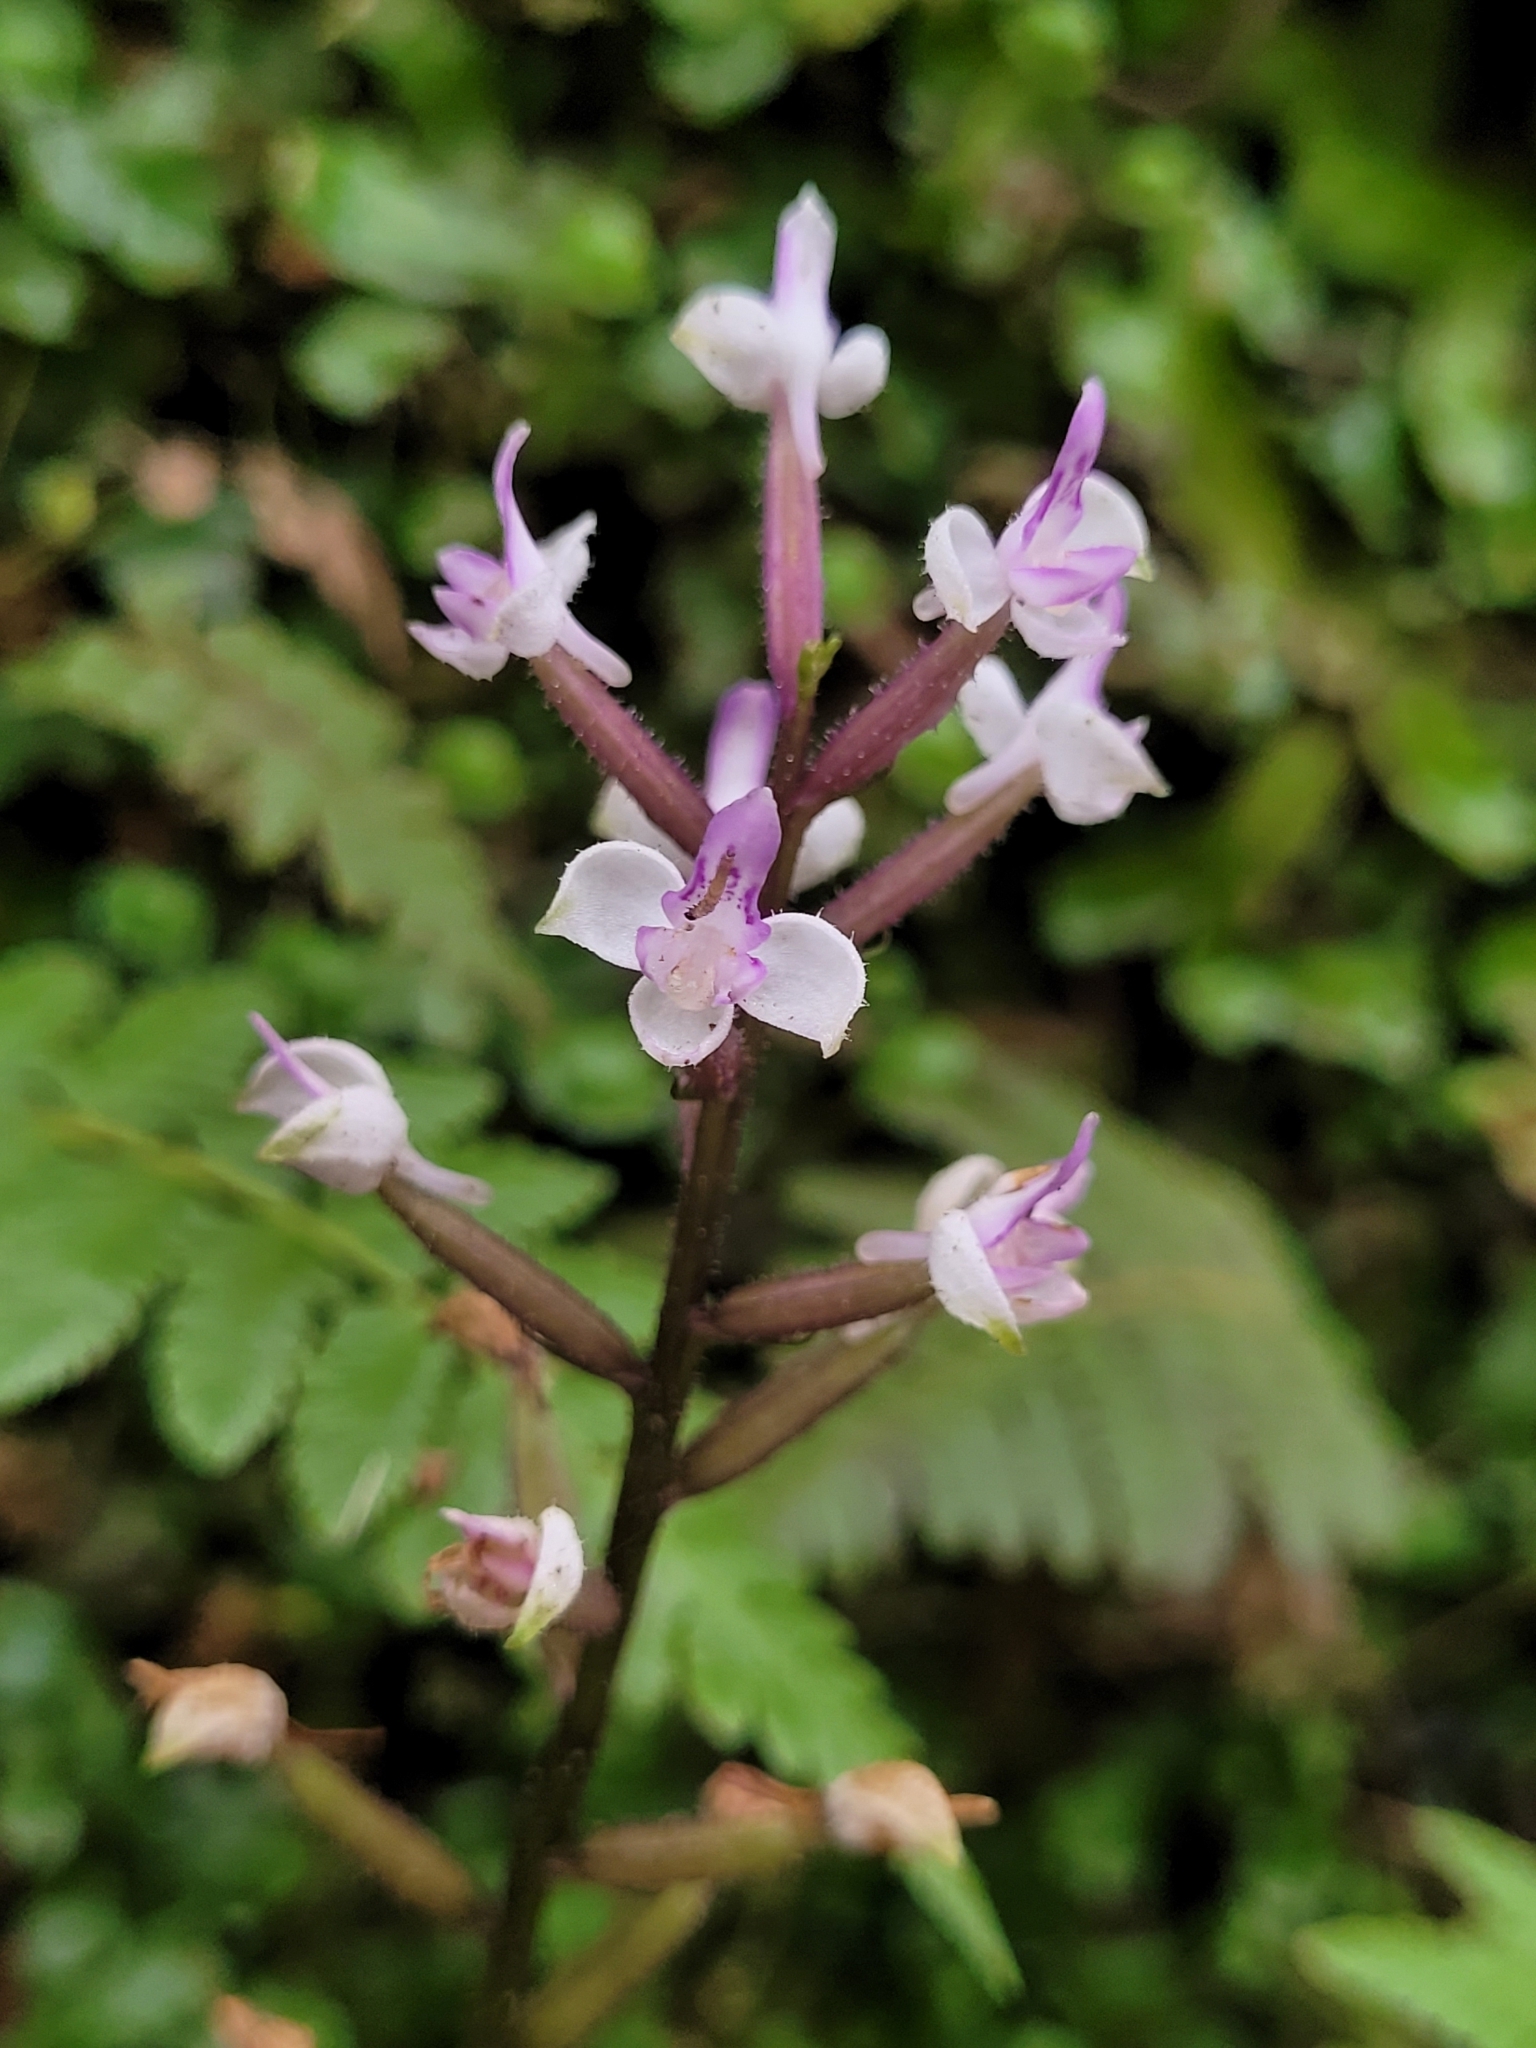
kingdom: Plantae
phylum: Tracheophyta
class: Liliopsida
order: Asparagales
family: Orchidaceae
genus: Cynorkis
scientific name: Cynorkis ridleyi
